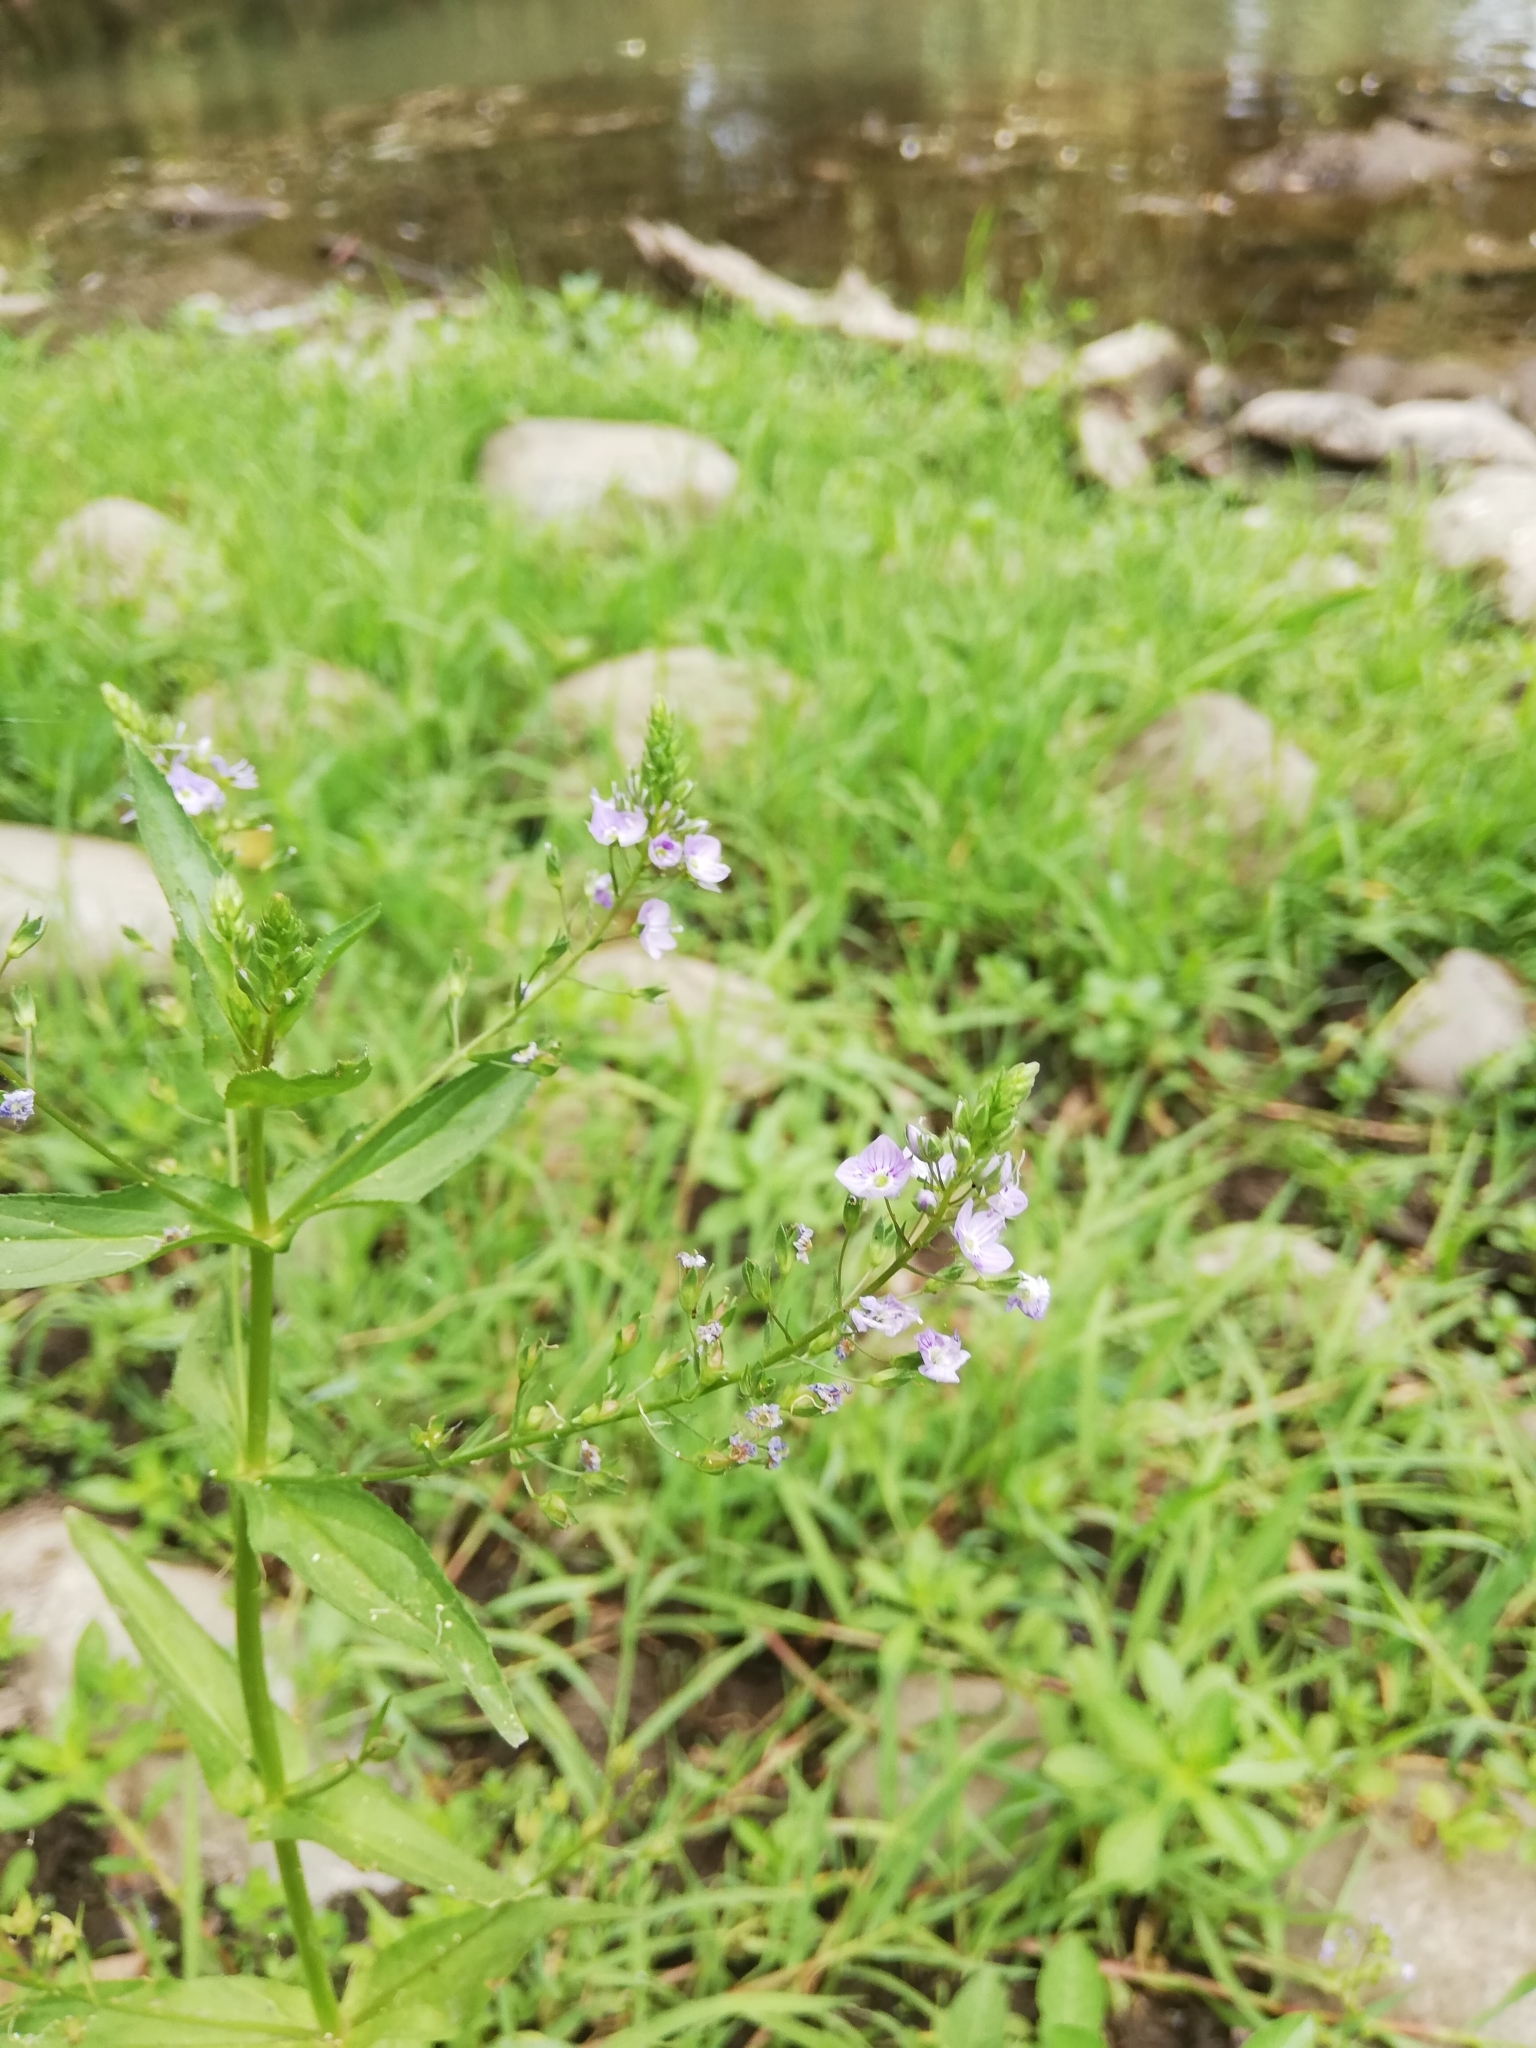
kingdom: Plantae
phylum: Tracheophyta
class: Magnoliopsida
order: Lamiales
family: Plantaginaceae
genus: Veronica
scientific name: Veronica anagallis-aquatica
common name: Water speedwell
